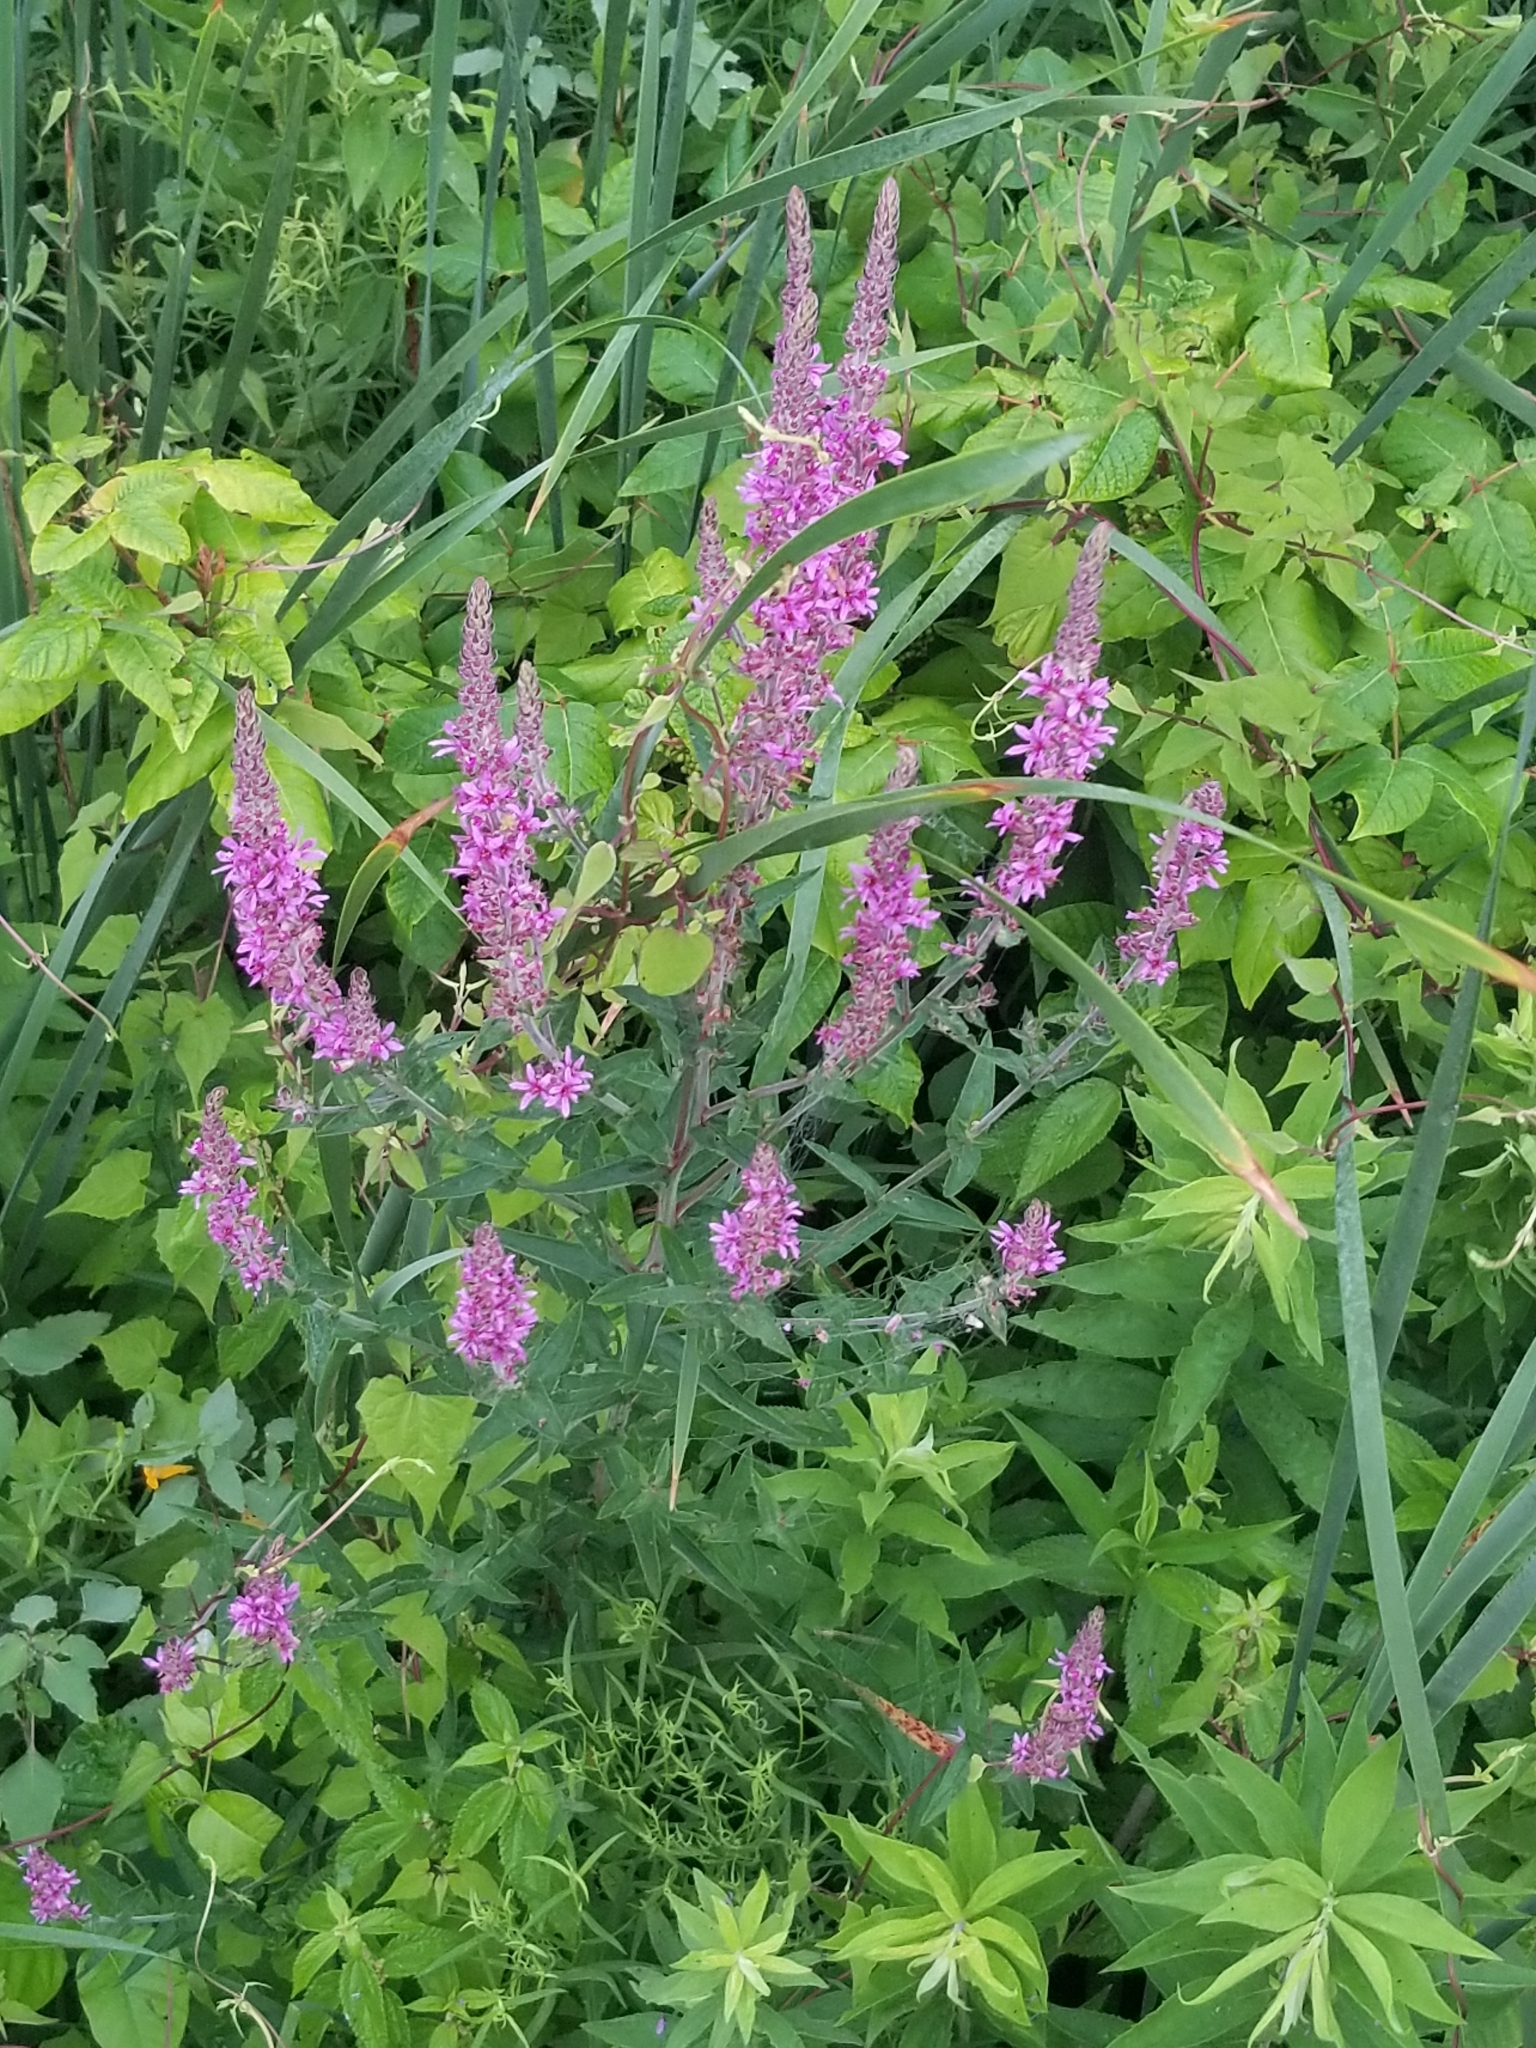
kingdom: Plantae
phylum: Tracheophyta
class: Magnoliopsida
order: Myrtales
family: Lythraceae
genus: Lythrum
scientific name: Lythrum salicaria
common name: Purple loosestrife
